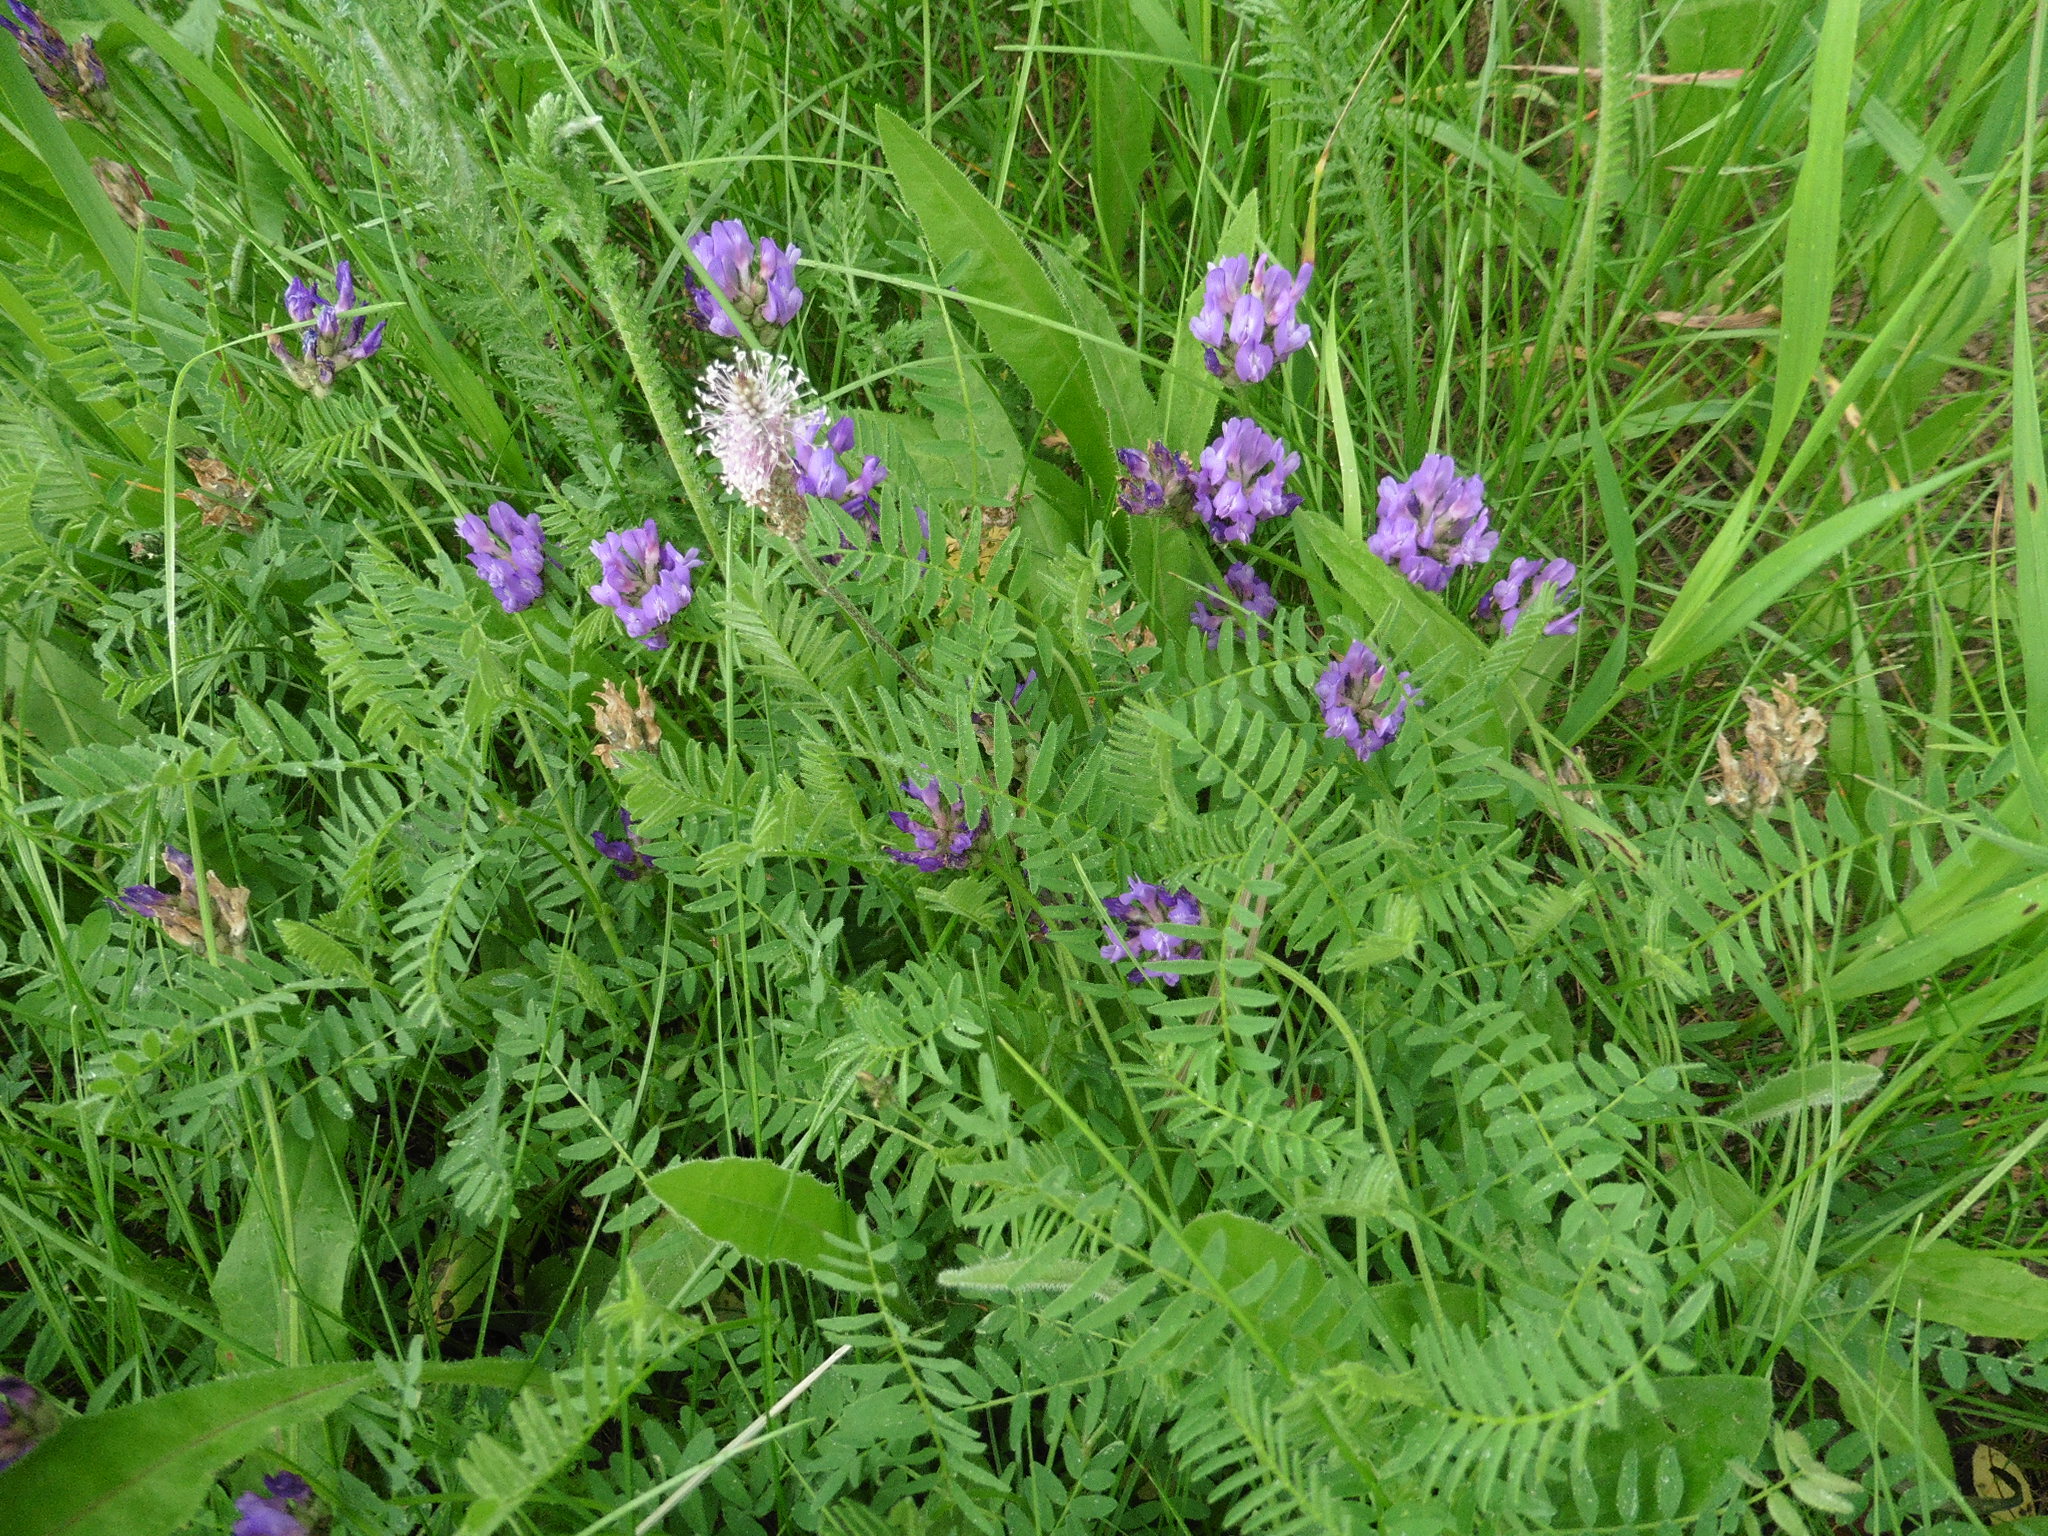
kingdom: Plantae
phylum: Tracheophyta
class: Magnoliopsida
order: Fabales
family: Fabaceae
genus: Astragalus
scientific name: Astragalus danicus
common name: Purple milk-vetch
